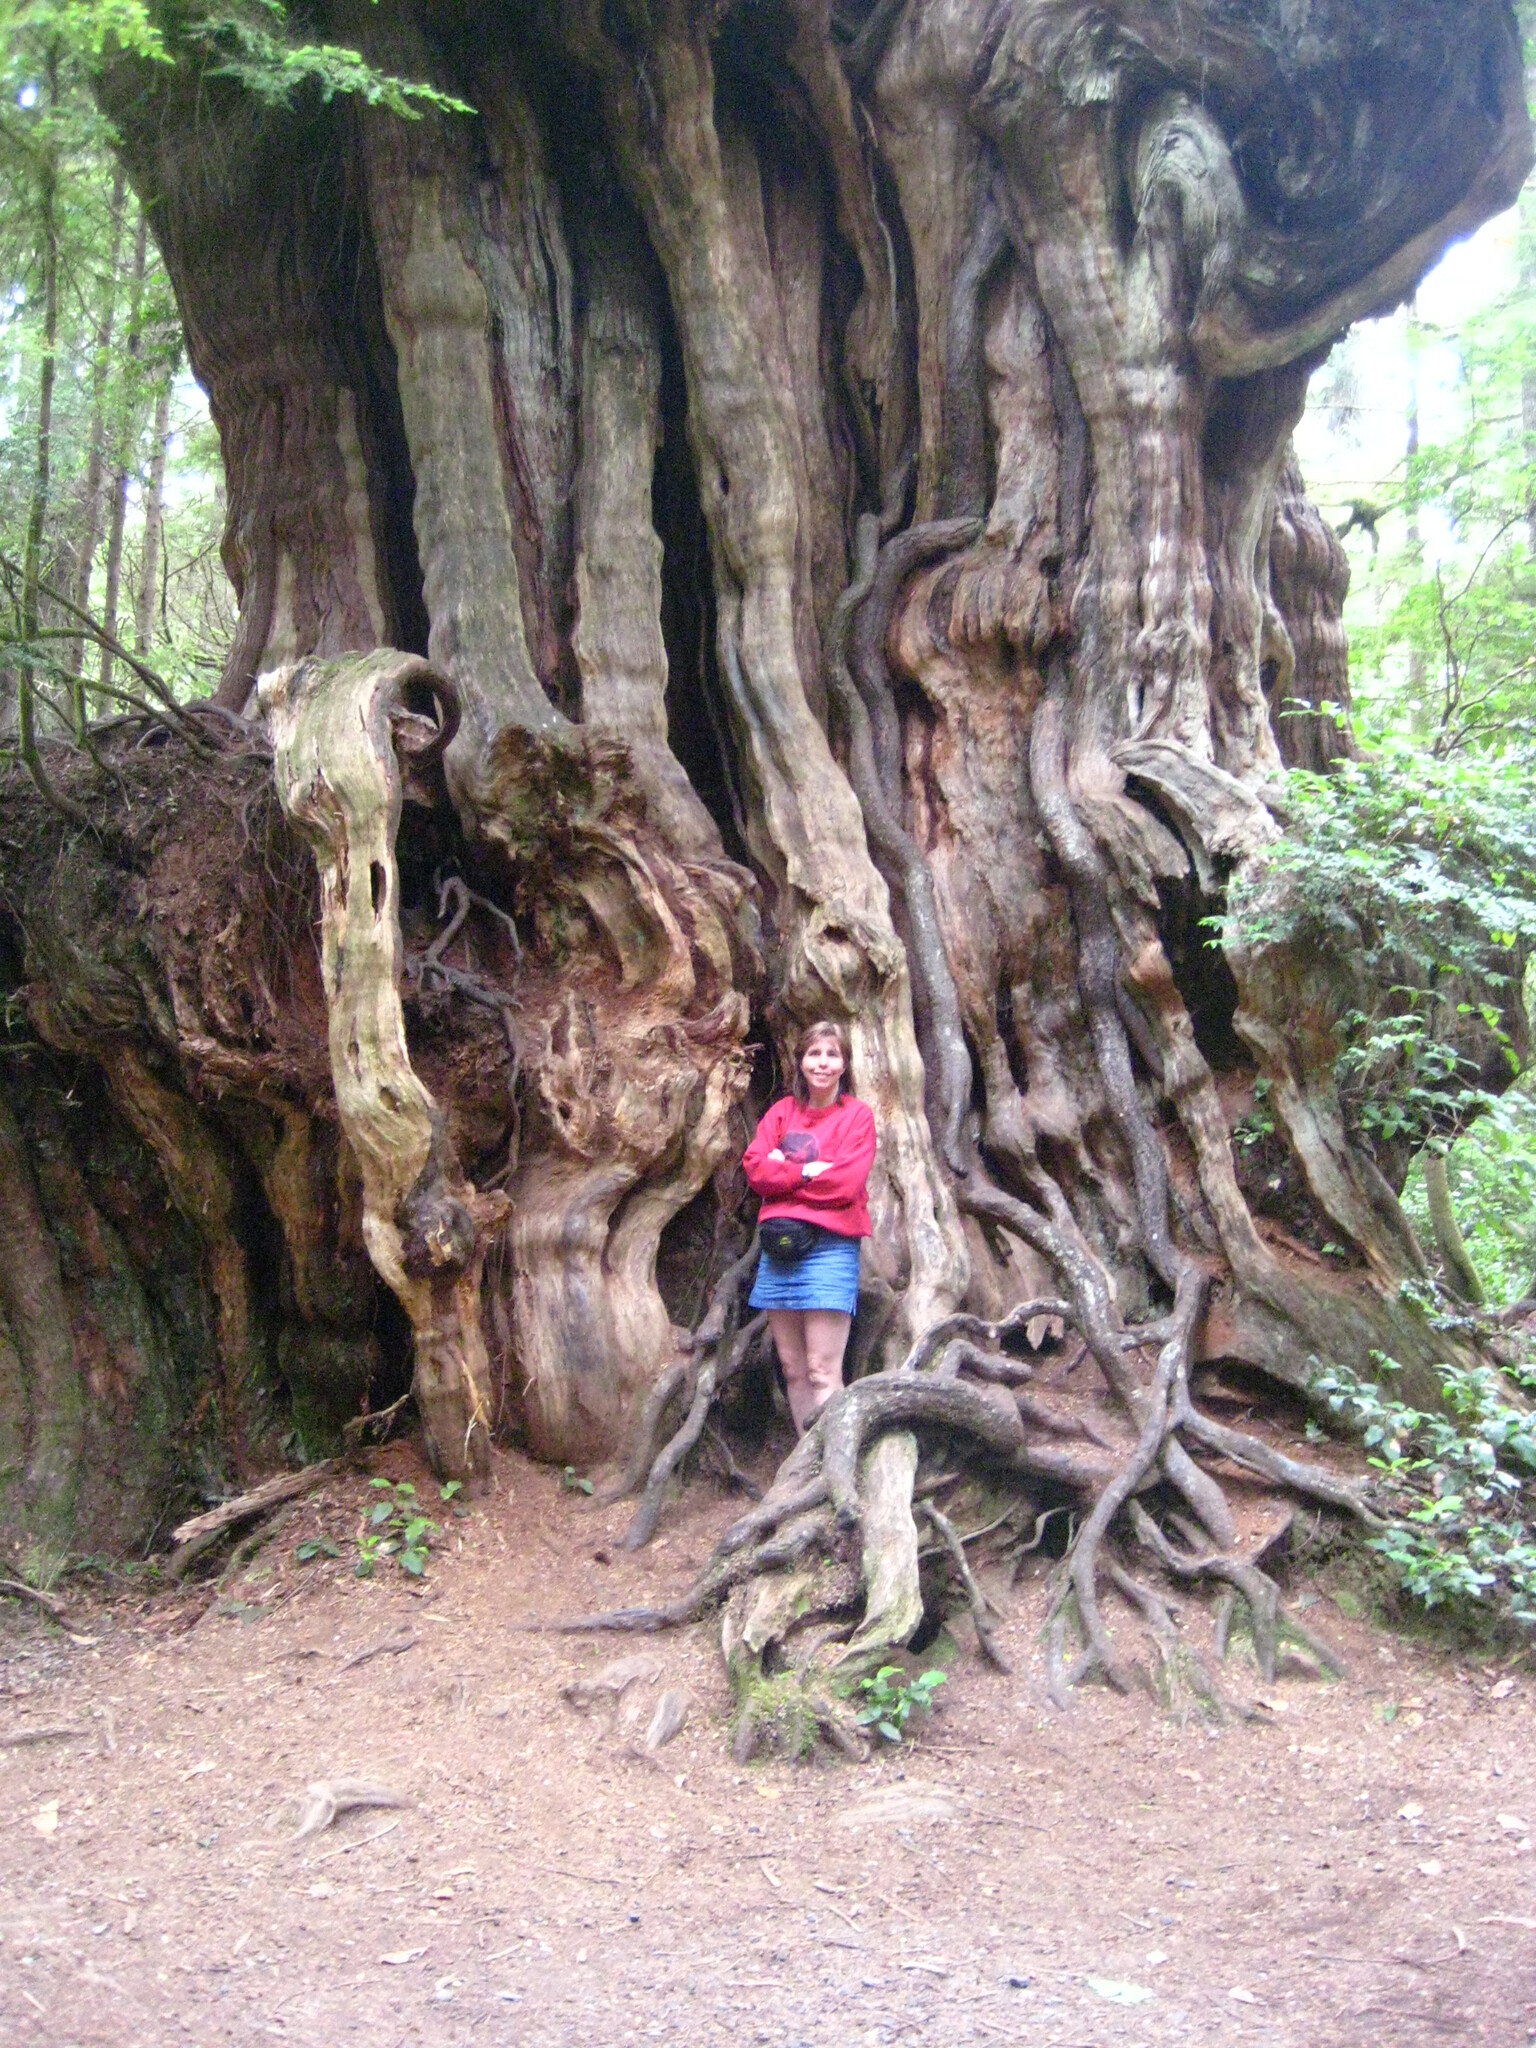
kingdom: Plantae
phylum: Tracheophyta
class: Pinopsida
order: Pinales
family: Pinaceae
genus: Pseudotsuga
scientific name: Pseudotsuga menziesii
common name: Douglas fir
